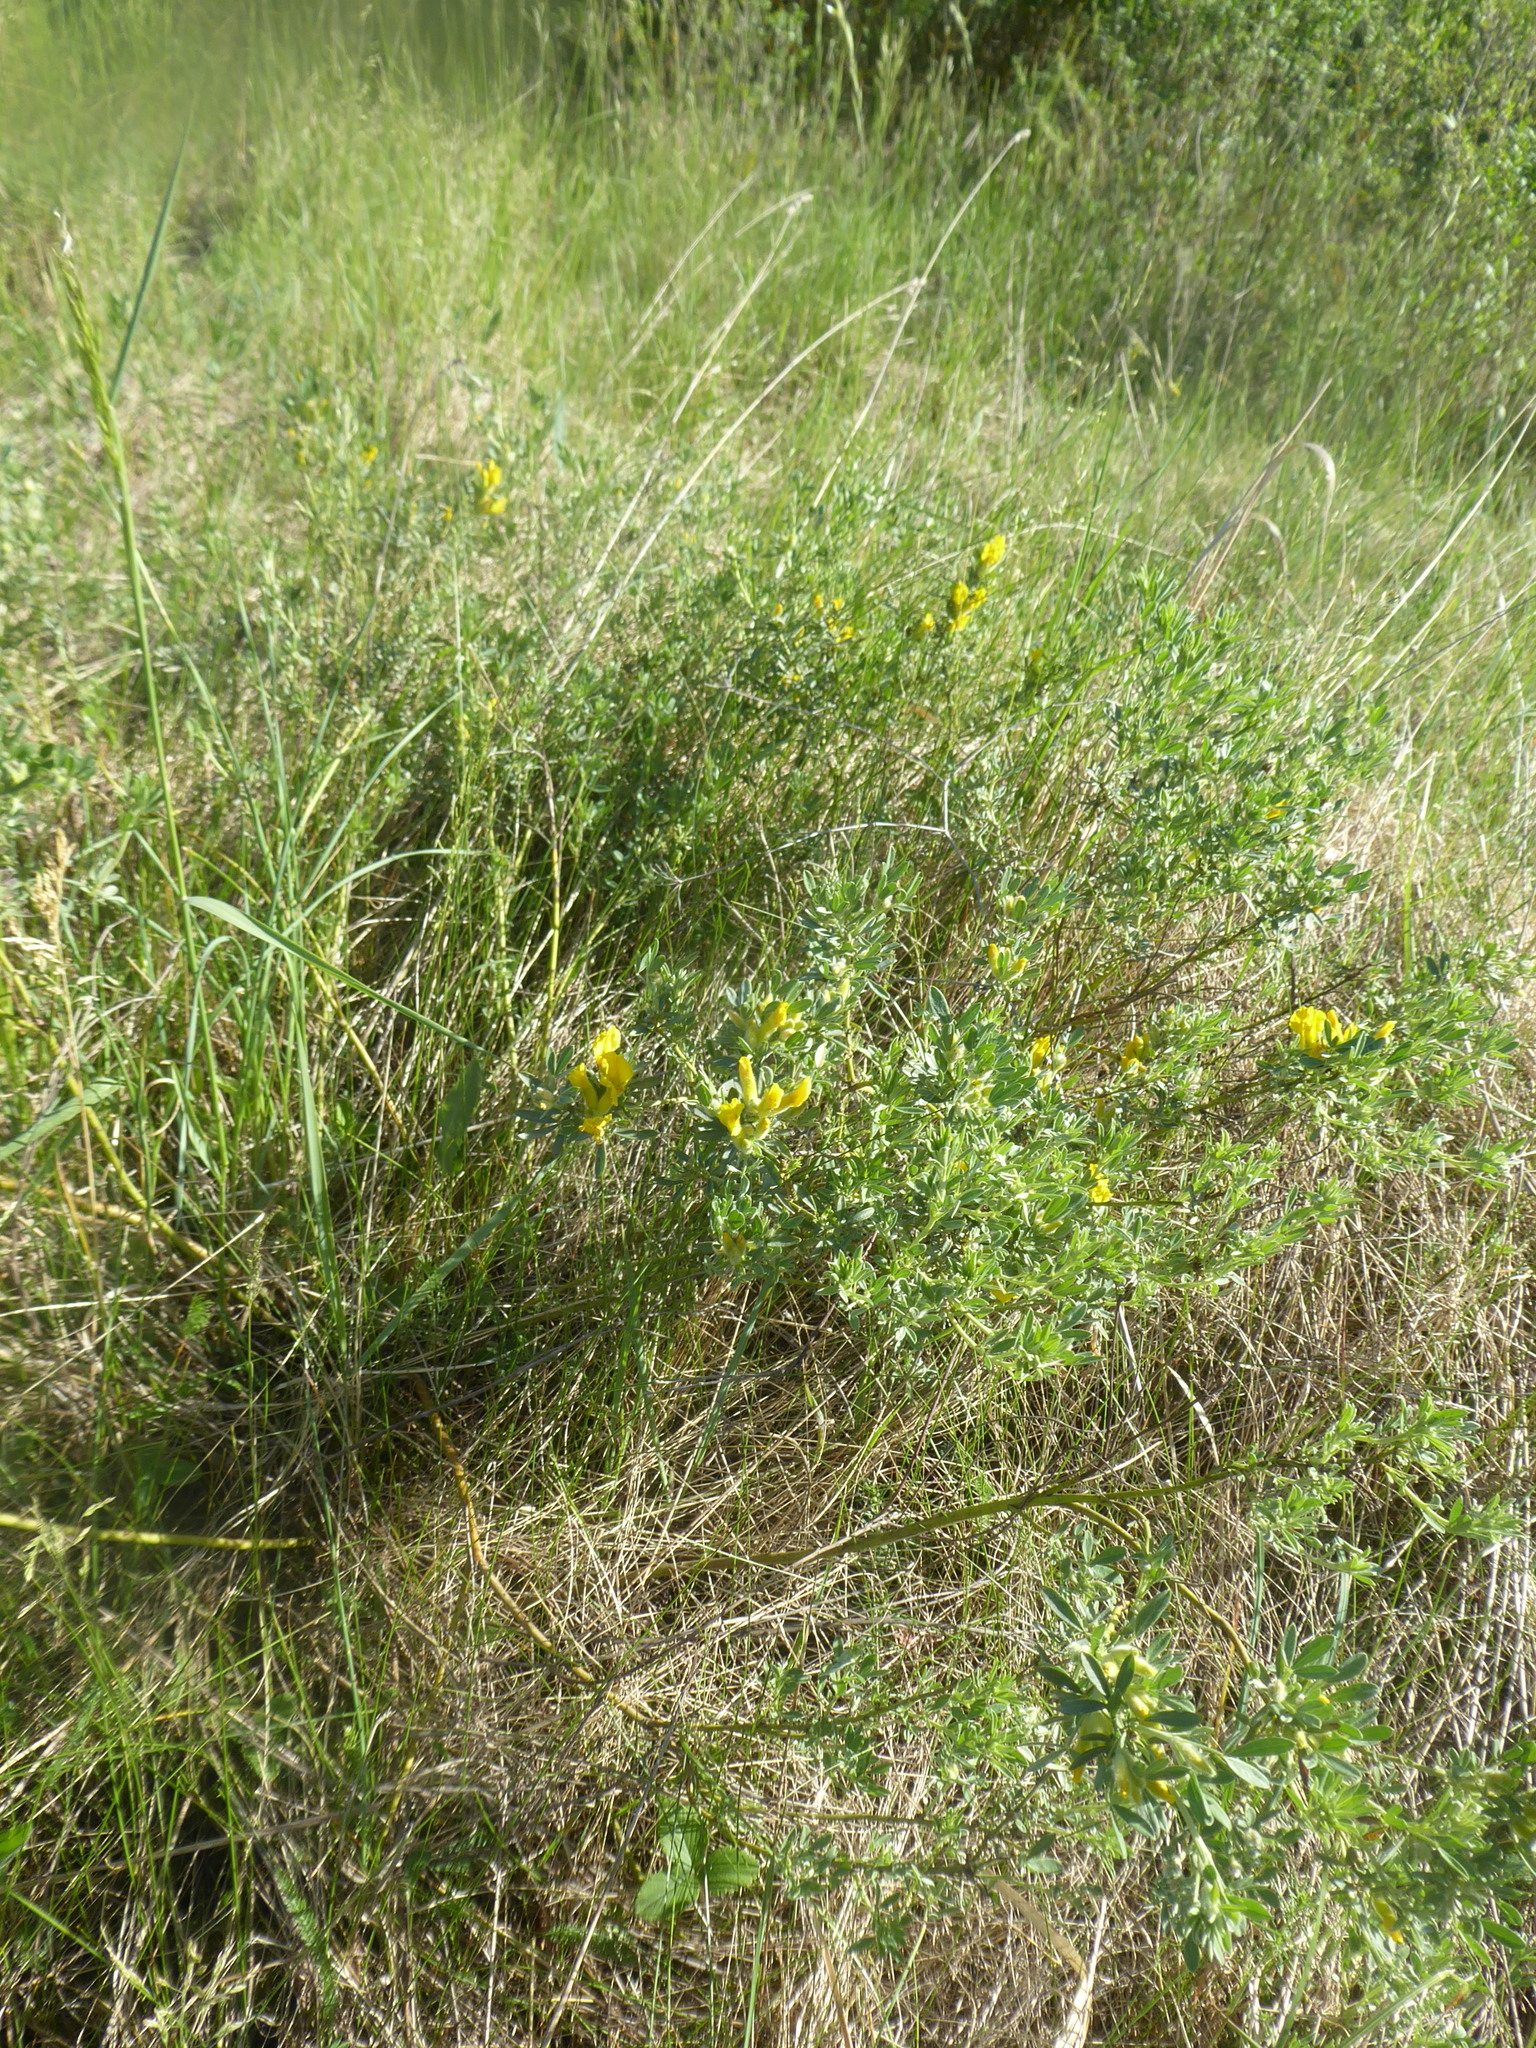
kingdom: Plantae
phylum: Tracheophyta
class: Magnoliopsida
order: Fabales
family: Fabaceae
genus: Chamaecytisus
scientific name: Chamaecytisus austriacus
